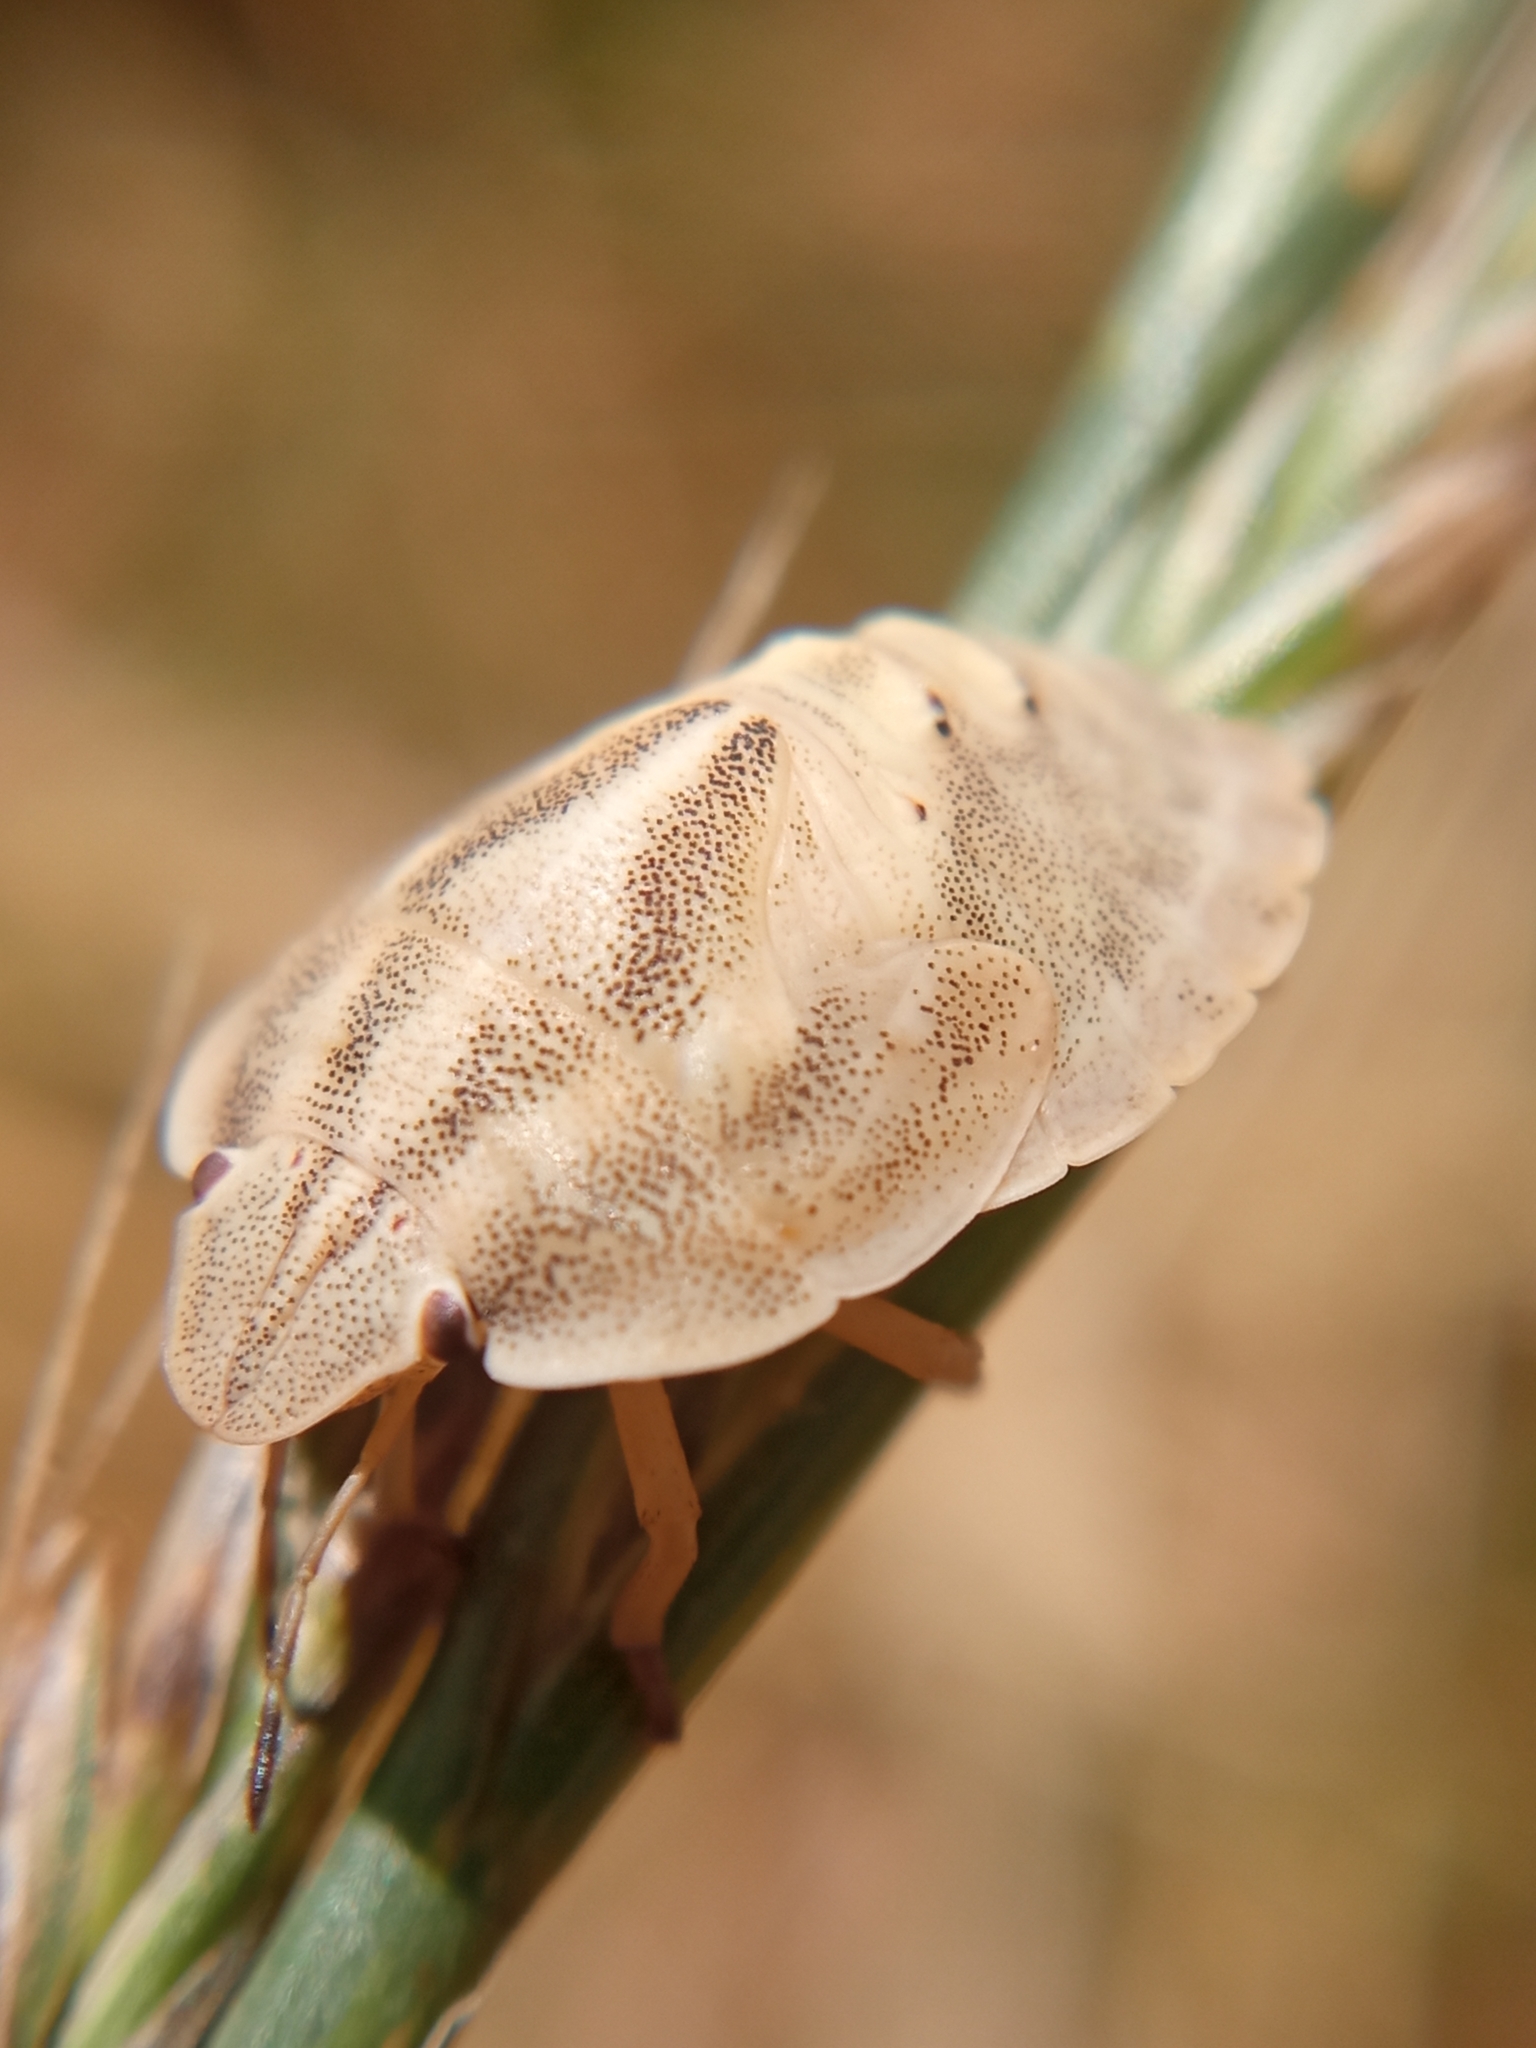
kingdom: Animalia
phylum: Arthropoda
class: Insecta
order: Hemiptera
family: Scutelleridae
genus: Eurygaster
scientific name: Eurygaster austriaca
